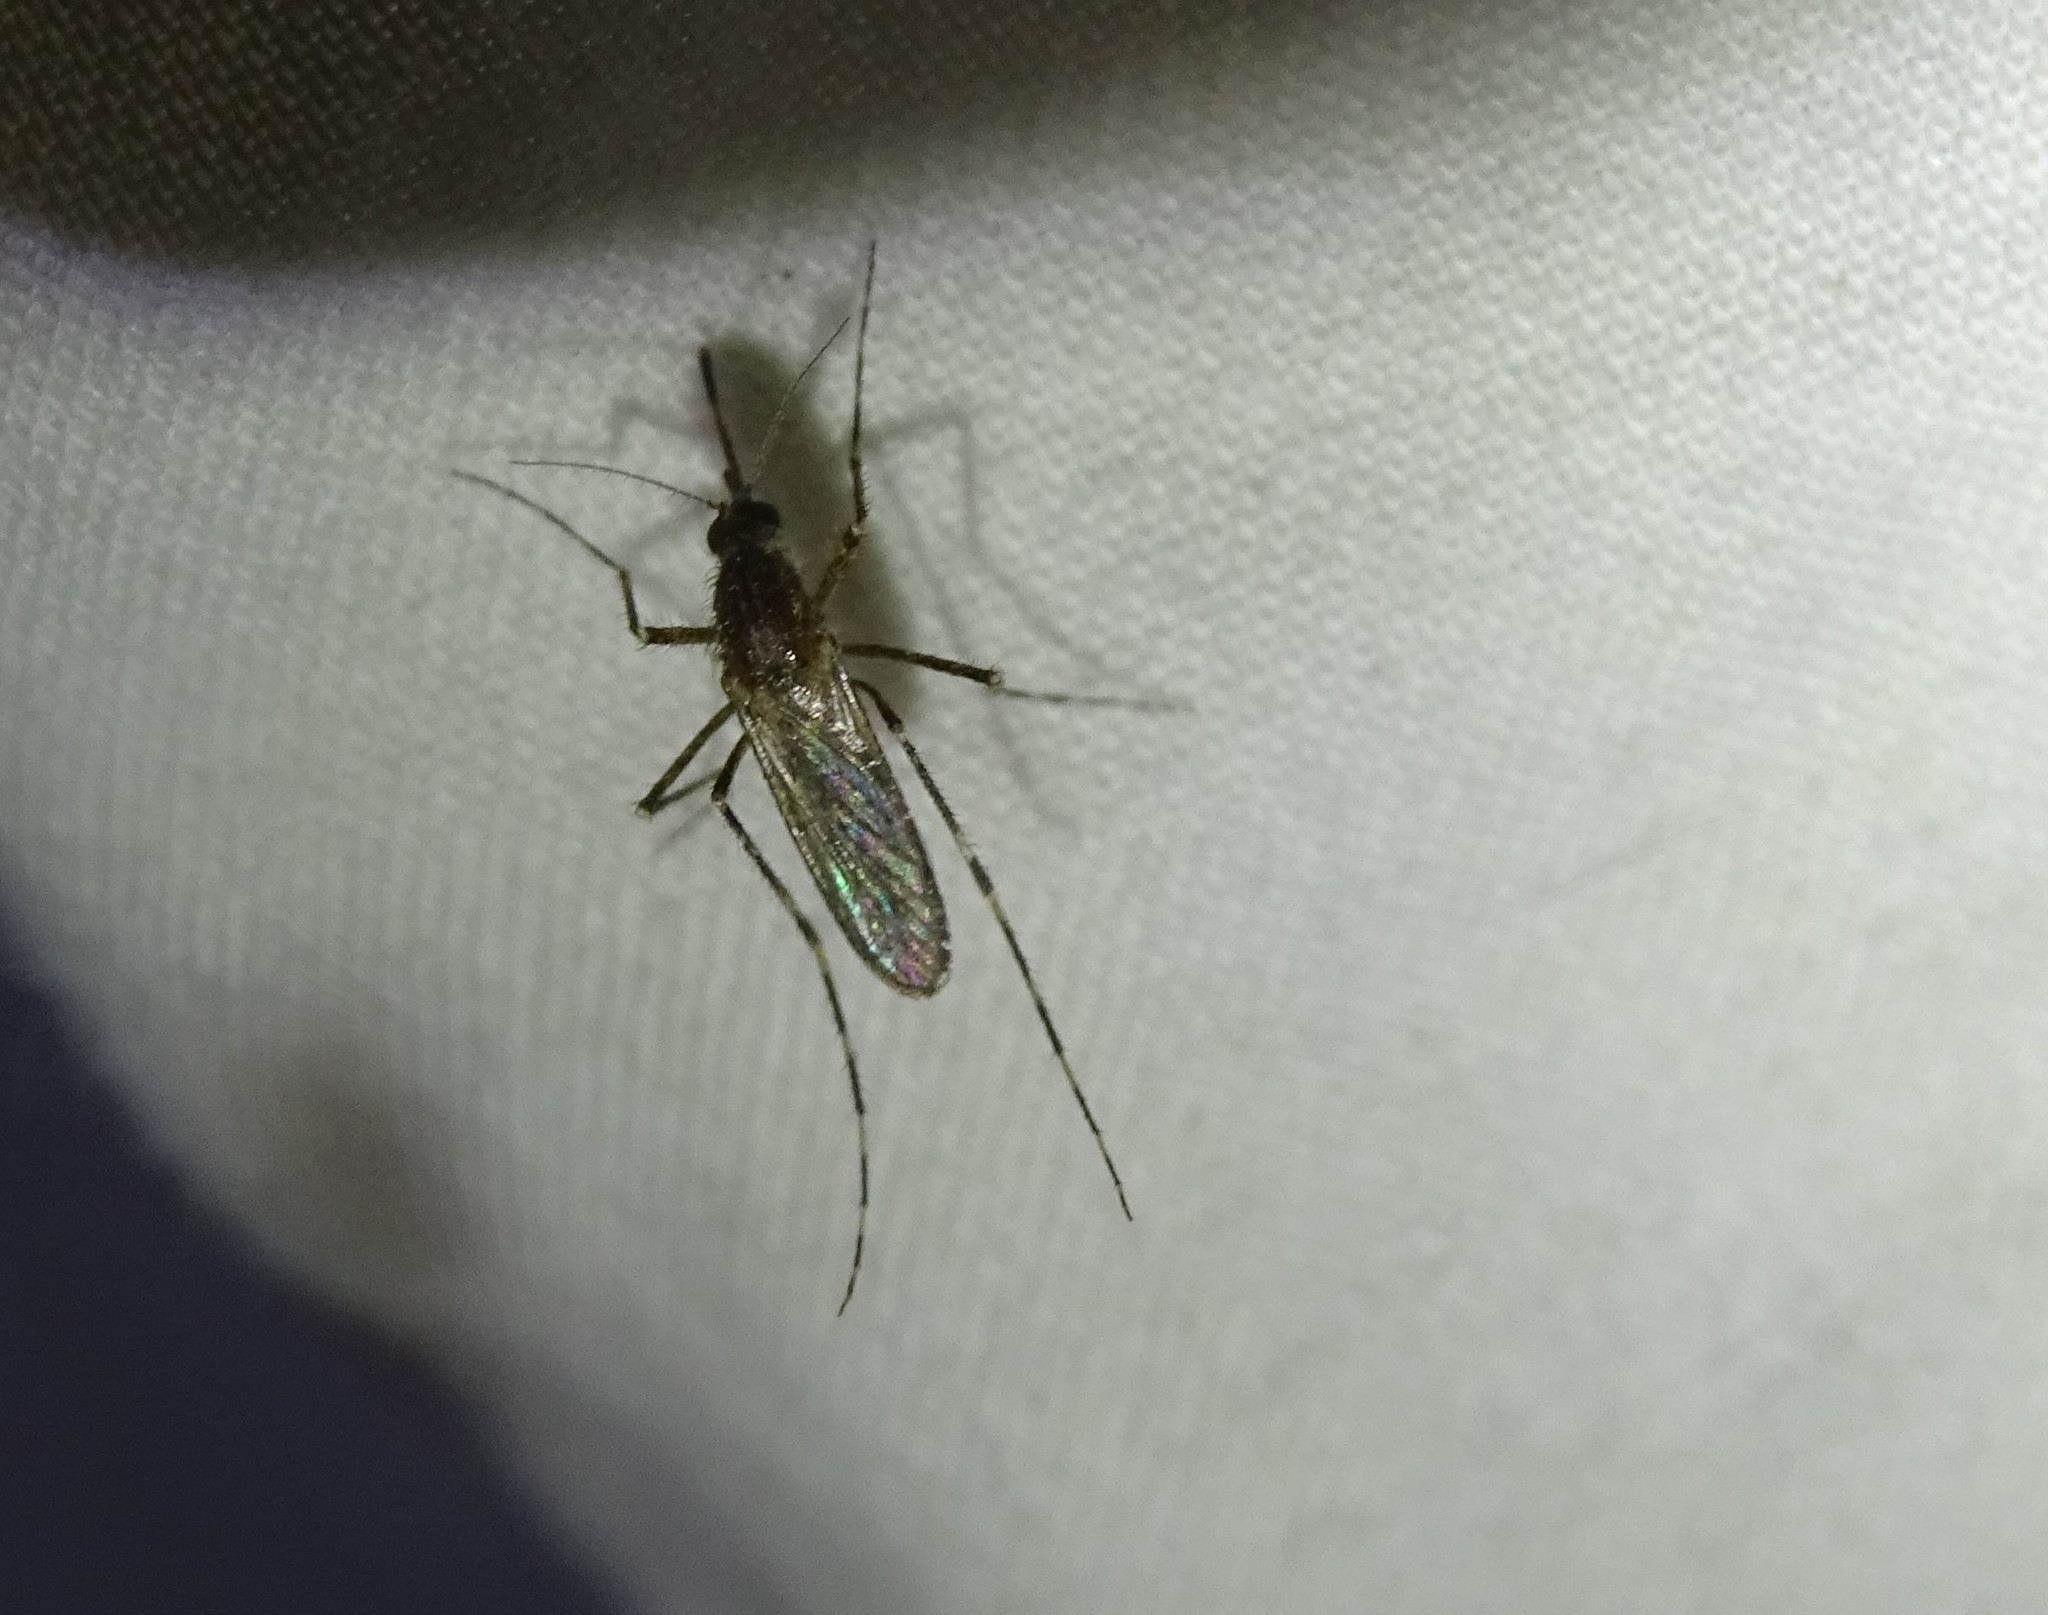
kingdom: Animalia
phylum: Arthropoda
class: Insecta
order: Diptera
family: Culicidae
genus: Coquillettidia
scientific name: Coquillettidia perturbans
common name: Cattail mosquito
